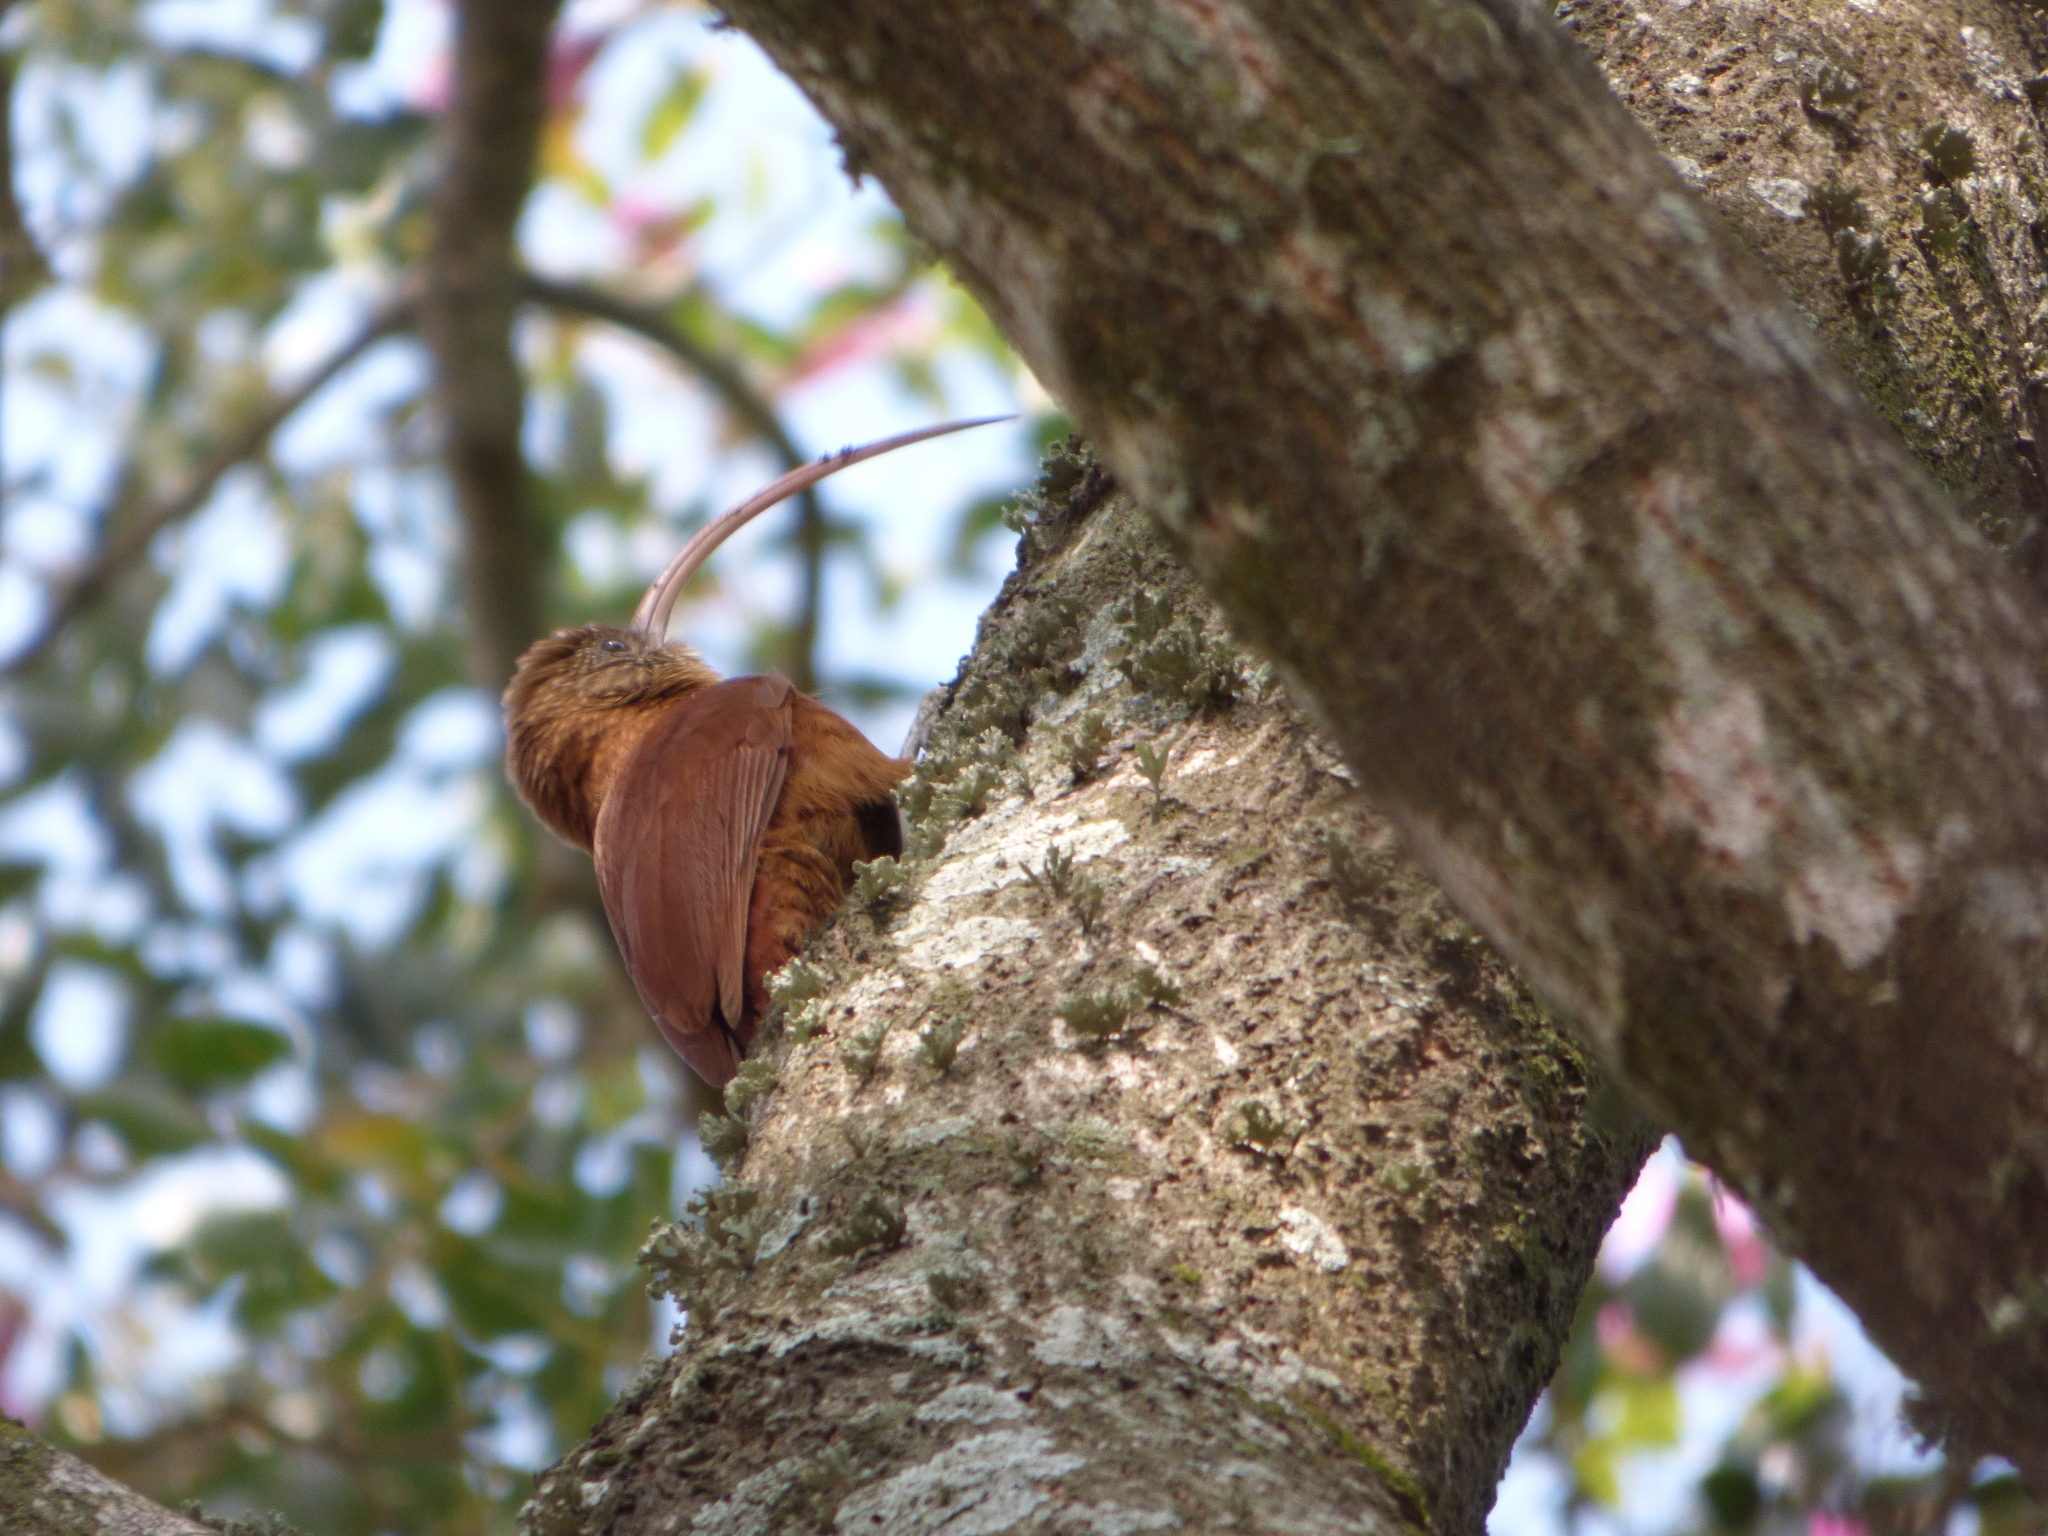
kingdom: Animalia
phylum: Chordata
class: Aves
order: Passeriformes
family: Furnariidae
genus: Campylorhamphus
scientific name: Campylorhamphus trochilirostris
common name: Red-billed scythebill
